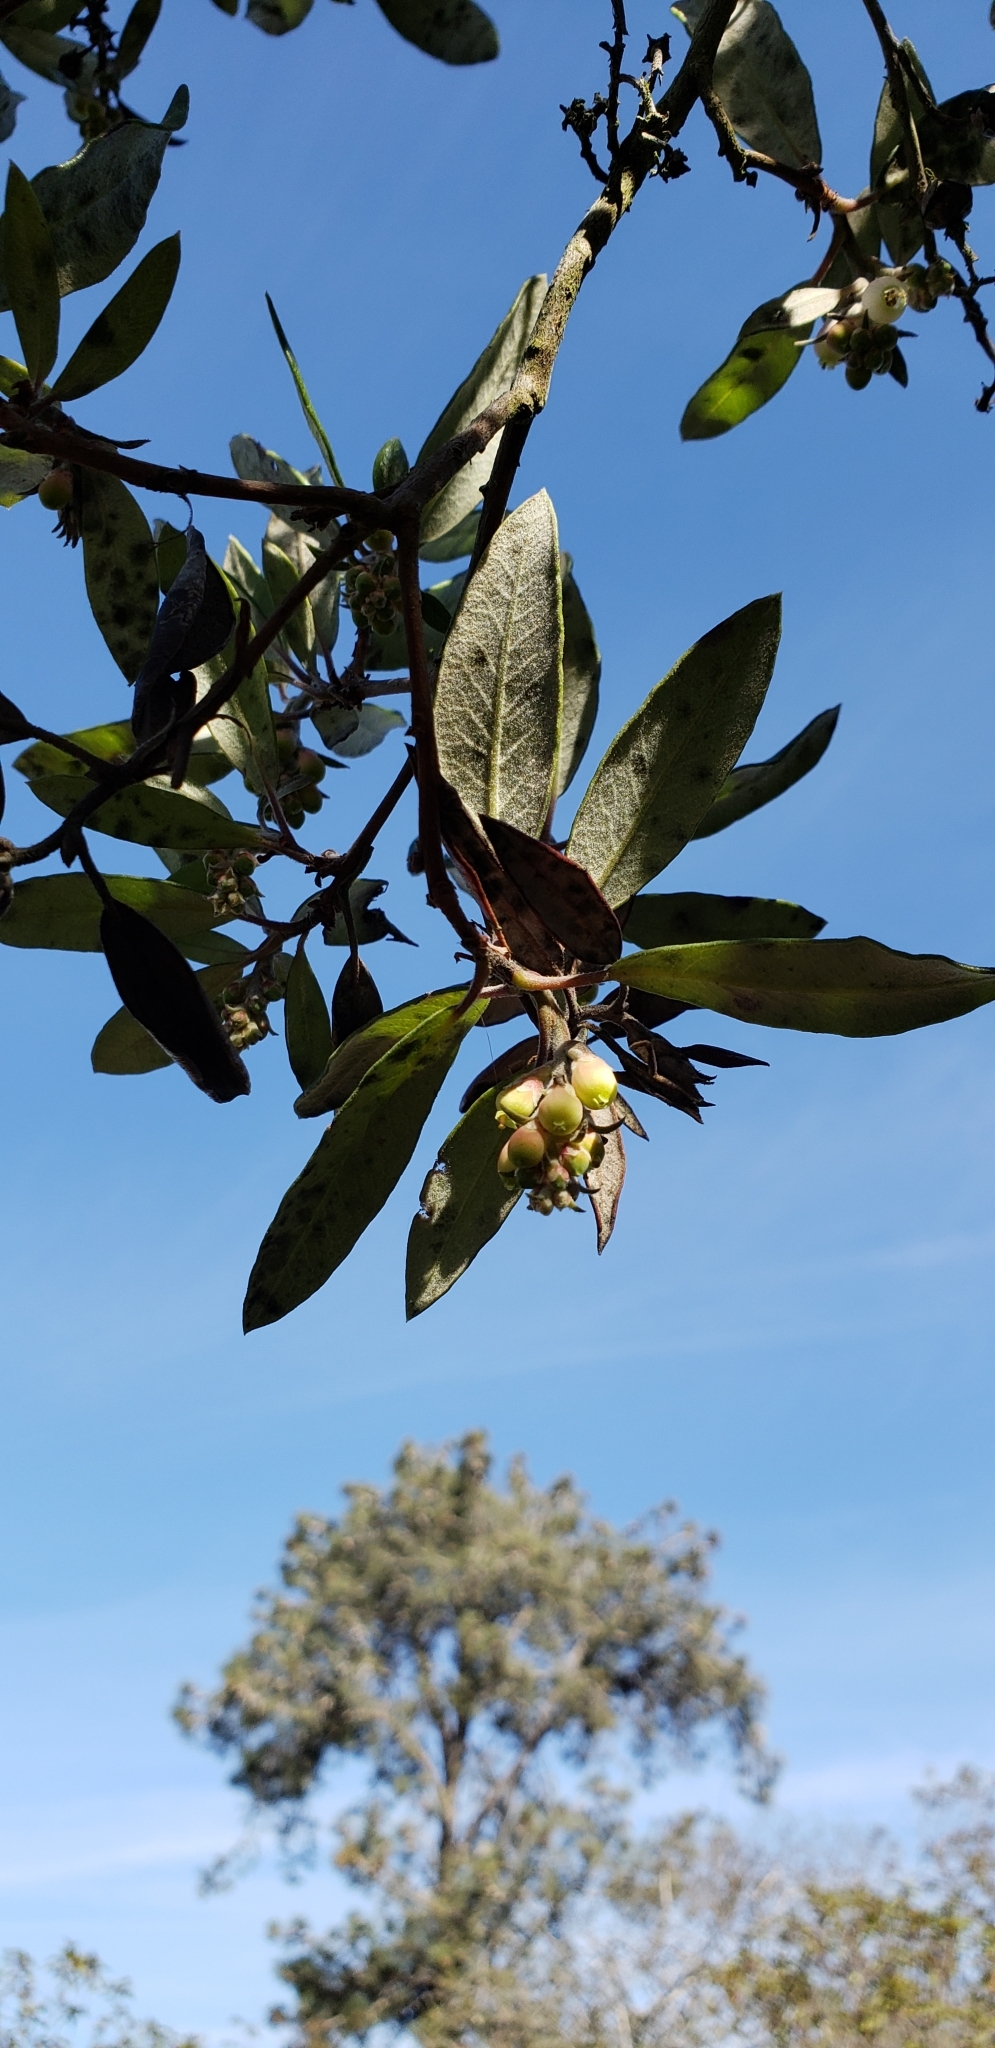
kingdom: Plantae
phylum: Tracheophyta
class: Magnoliopsida
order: Ericales
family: Ericaceae
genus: Arctostaphylos
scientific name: Arctostaphylos bicolor
